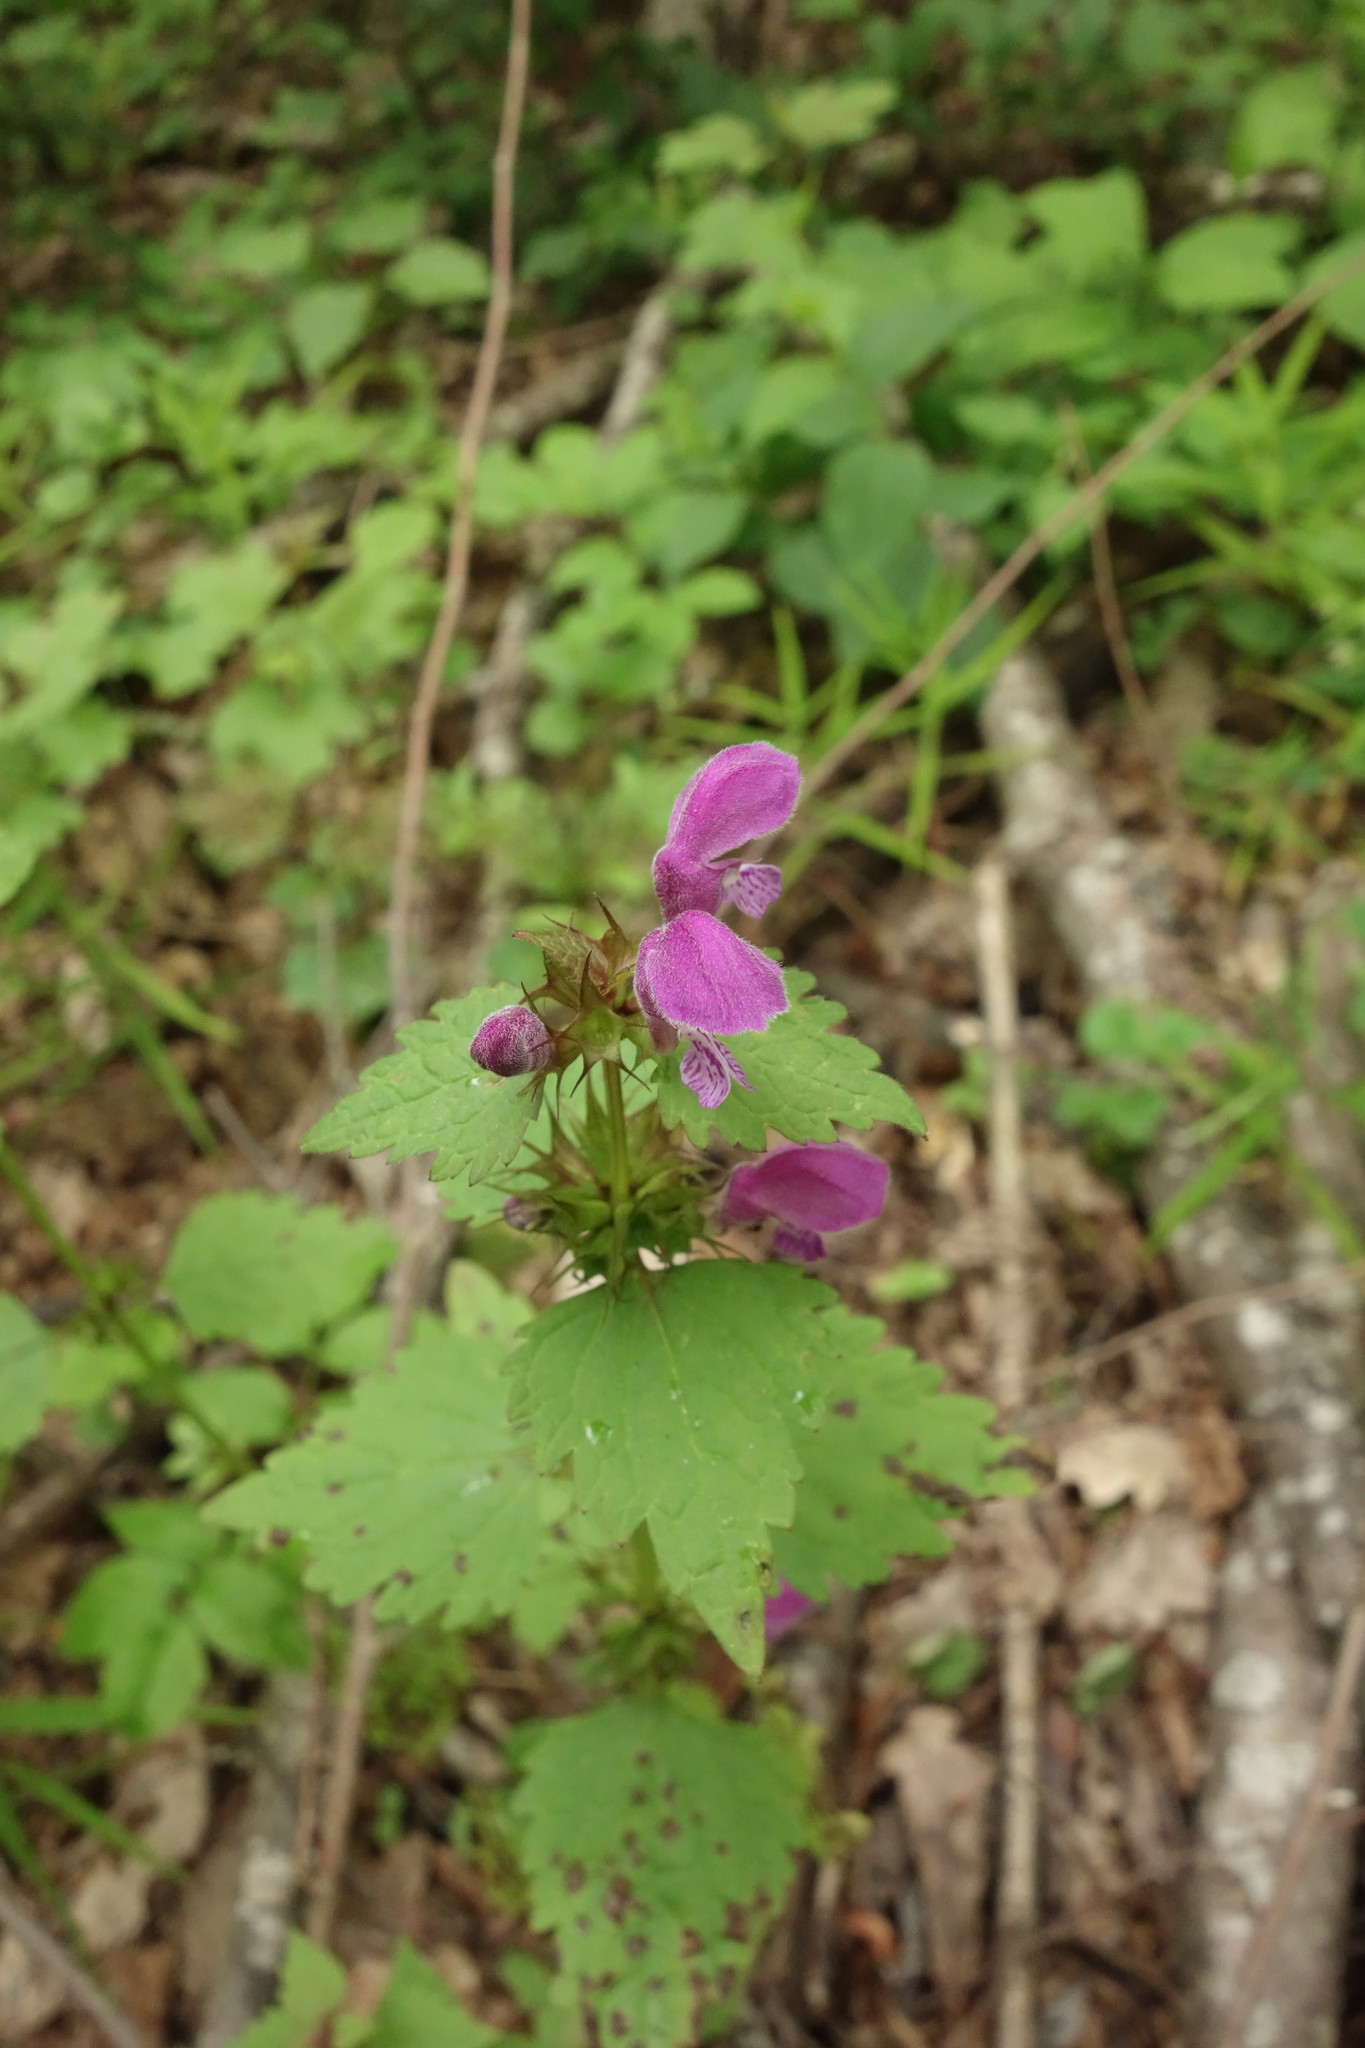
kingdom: Plantae
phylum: Tracheophyta
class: Magnoliopsida
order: Lamiales
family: Lamiaceae
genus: Lamium
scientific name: Lamium maculatum
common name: Spotted dead-nettle
